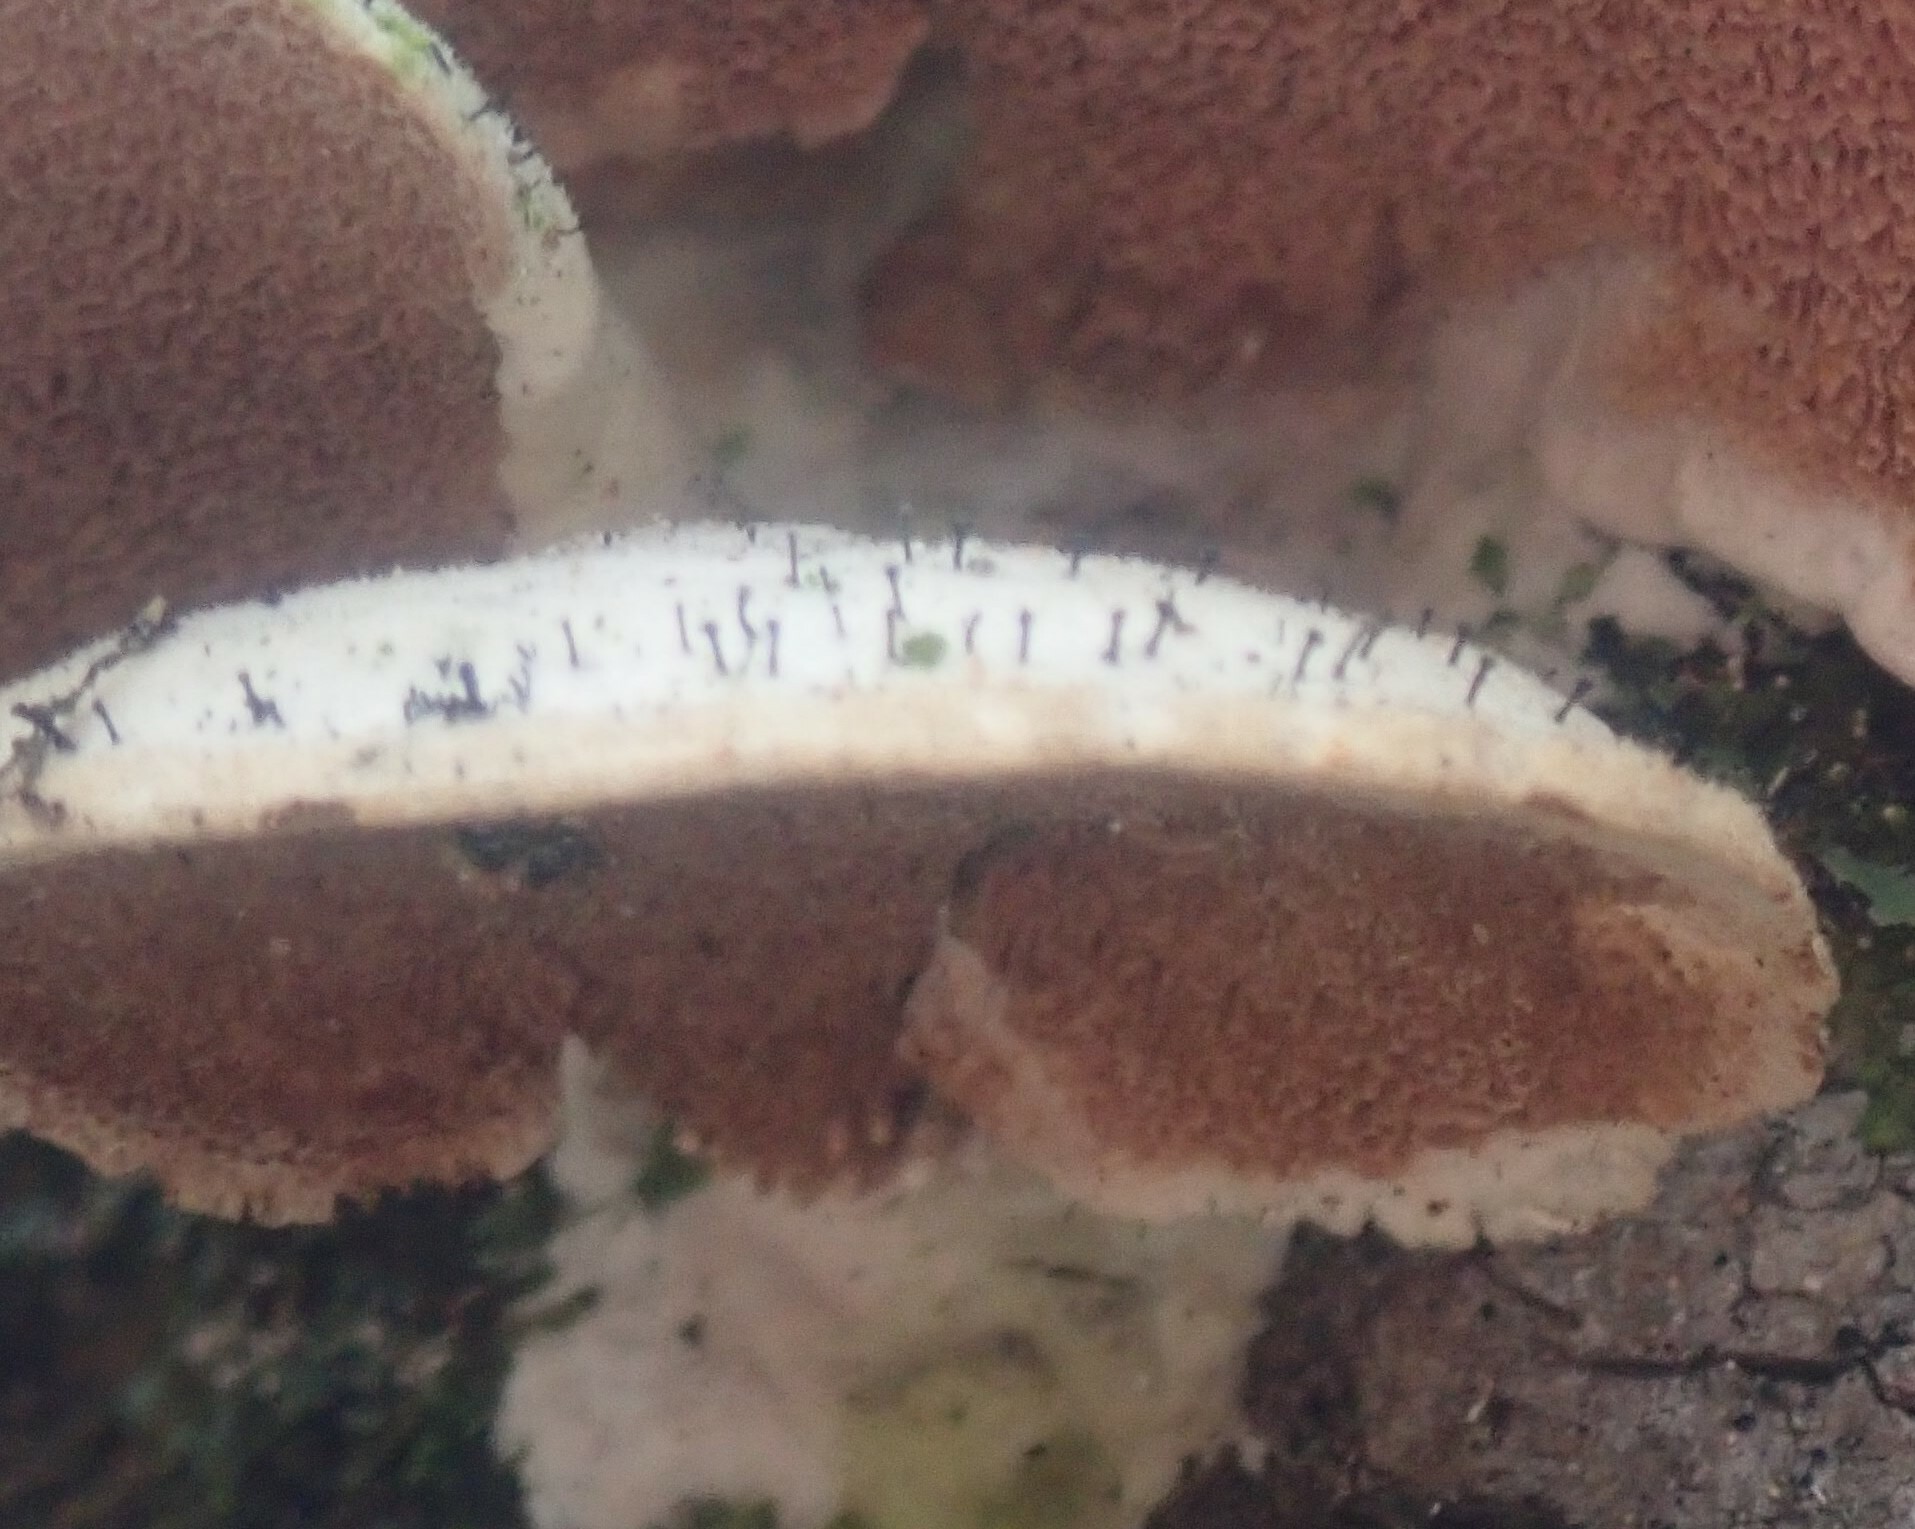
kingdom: Fungi
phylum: Ascomycota
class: Eurotiomycetes
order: Mycocaliciales
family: Mycocaliciaceae
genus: Phaeocalicium
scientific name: Phaeocalicium polyporaeum
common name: Fairy pins
